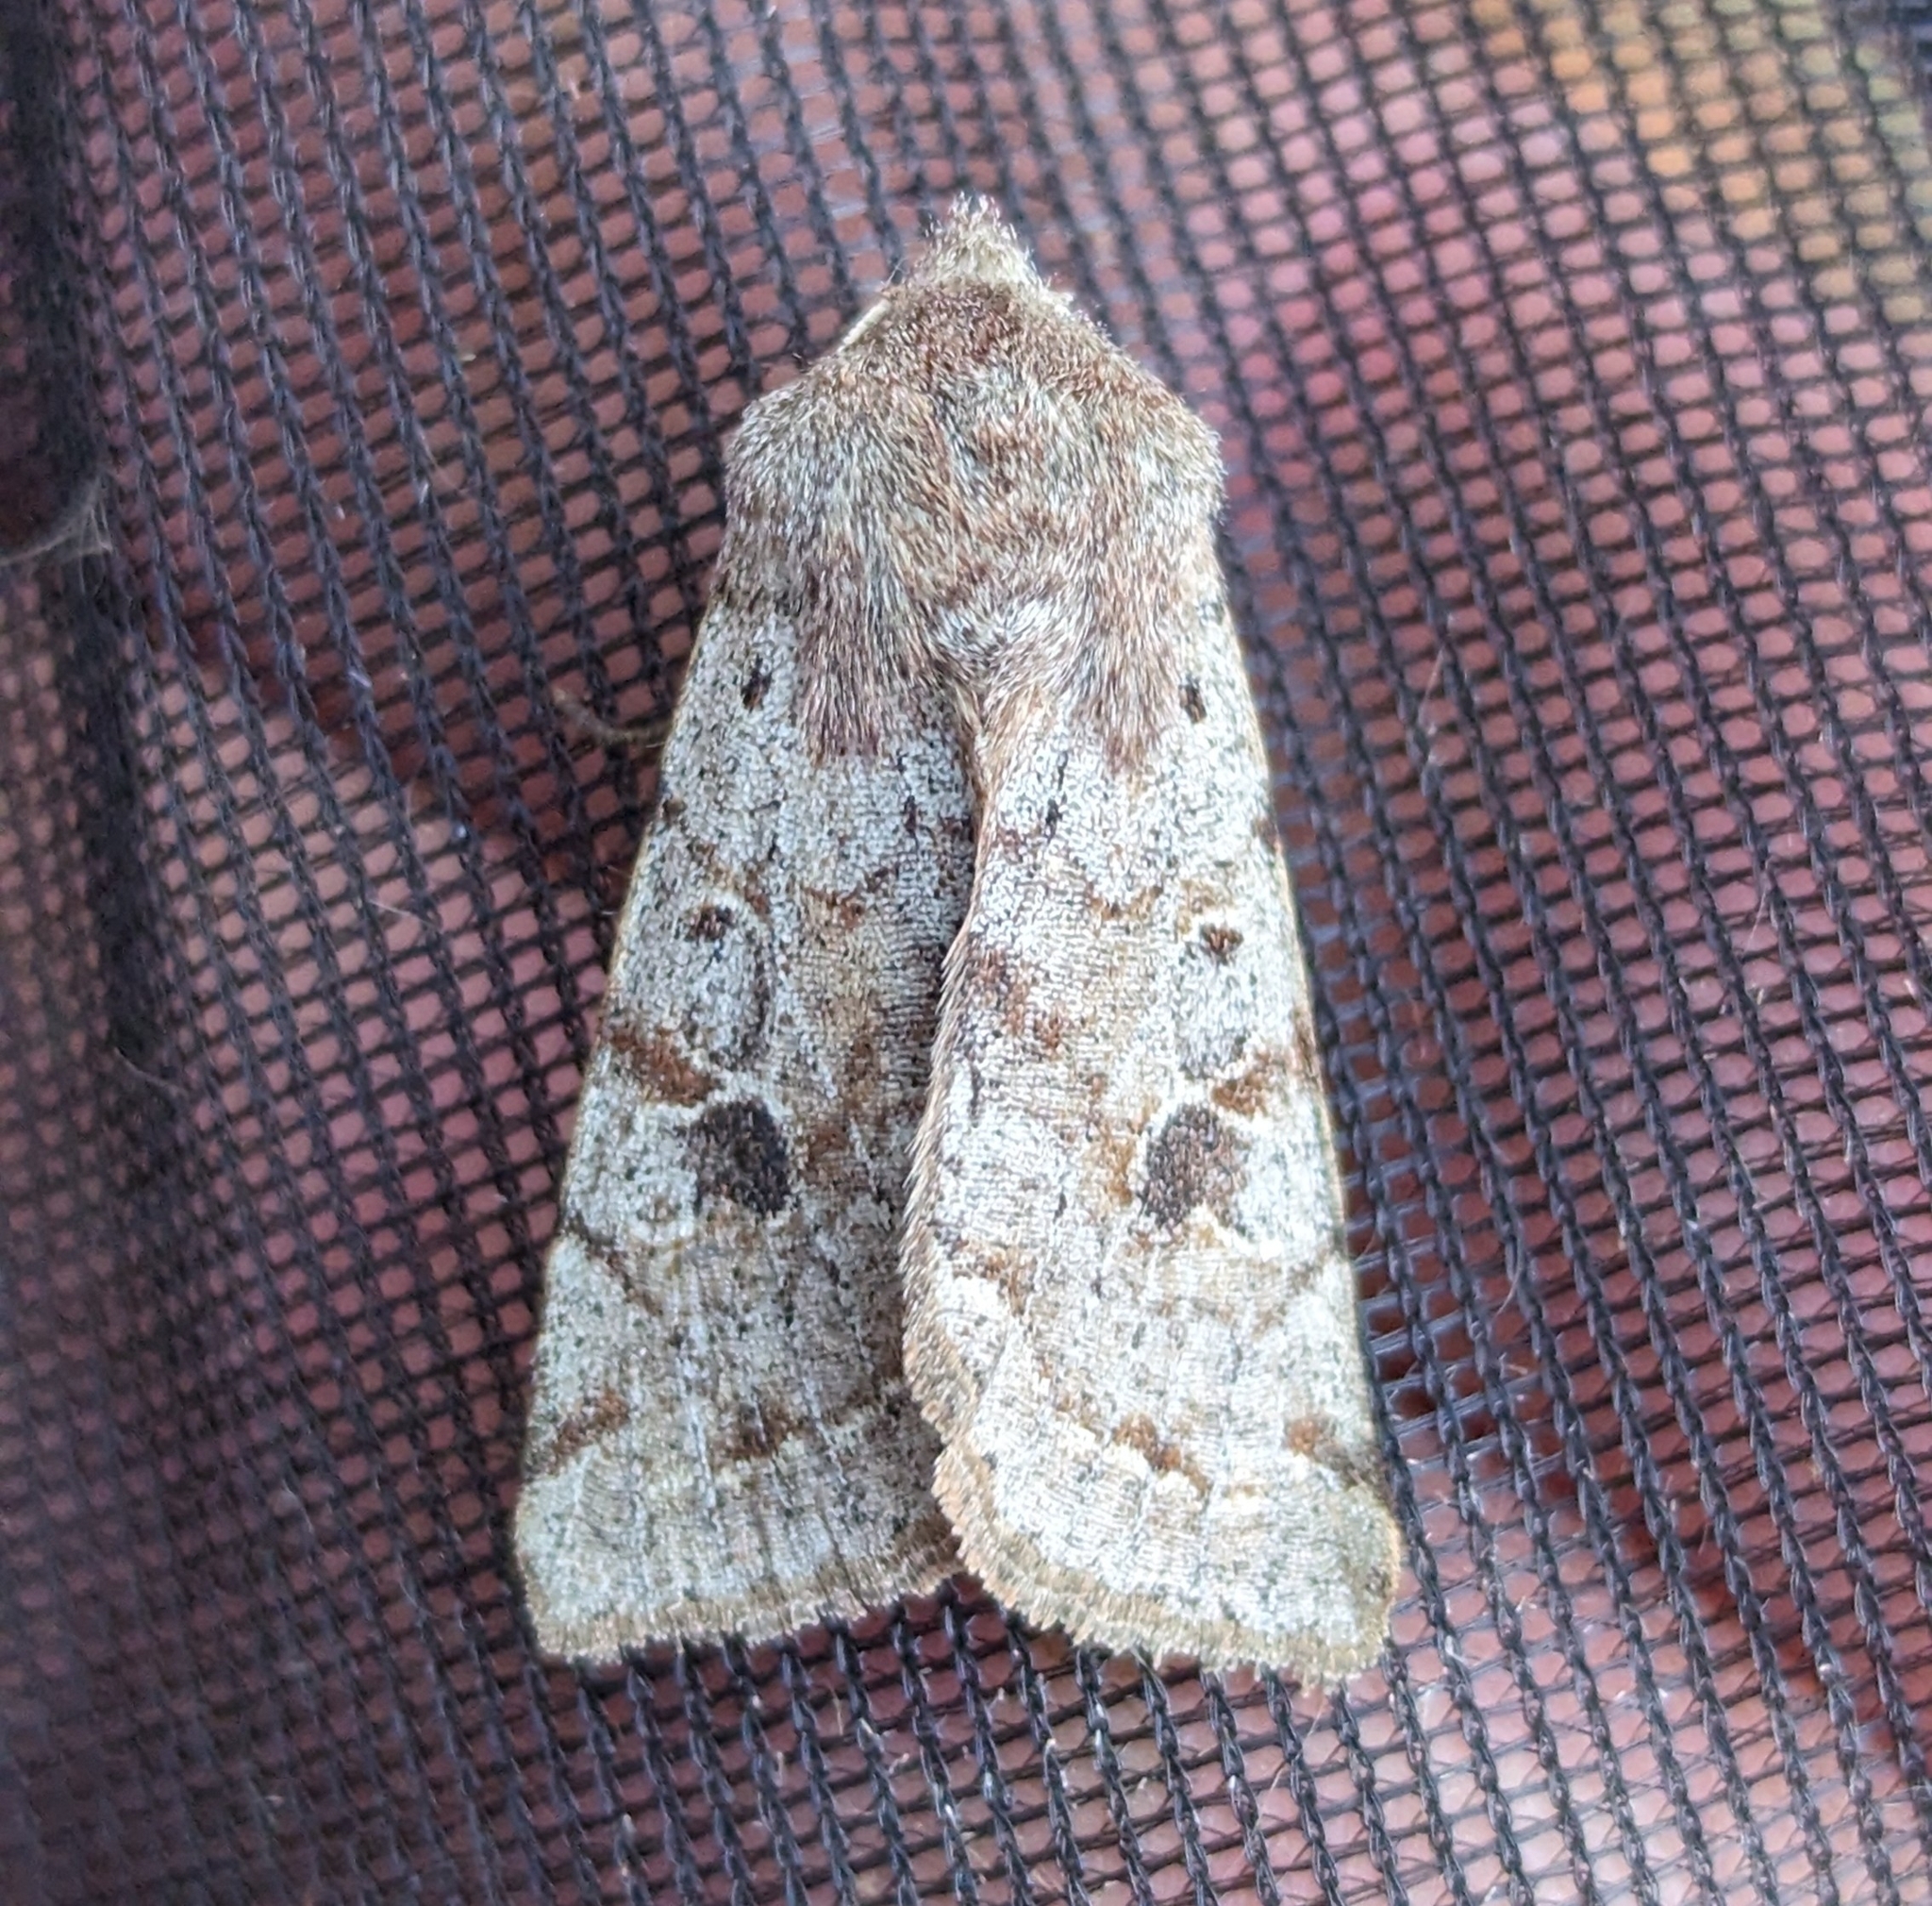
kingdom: Animalia
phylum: Arthropoda
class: Insecta
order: Lepidoptera
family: Noctuidae
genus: Orthosia
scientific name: Orthosia hibisci
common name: Green fruitworm
